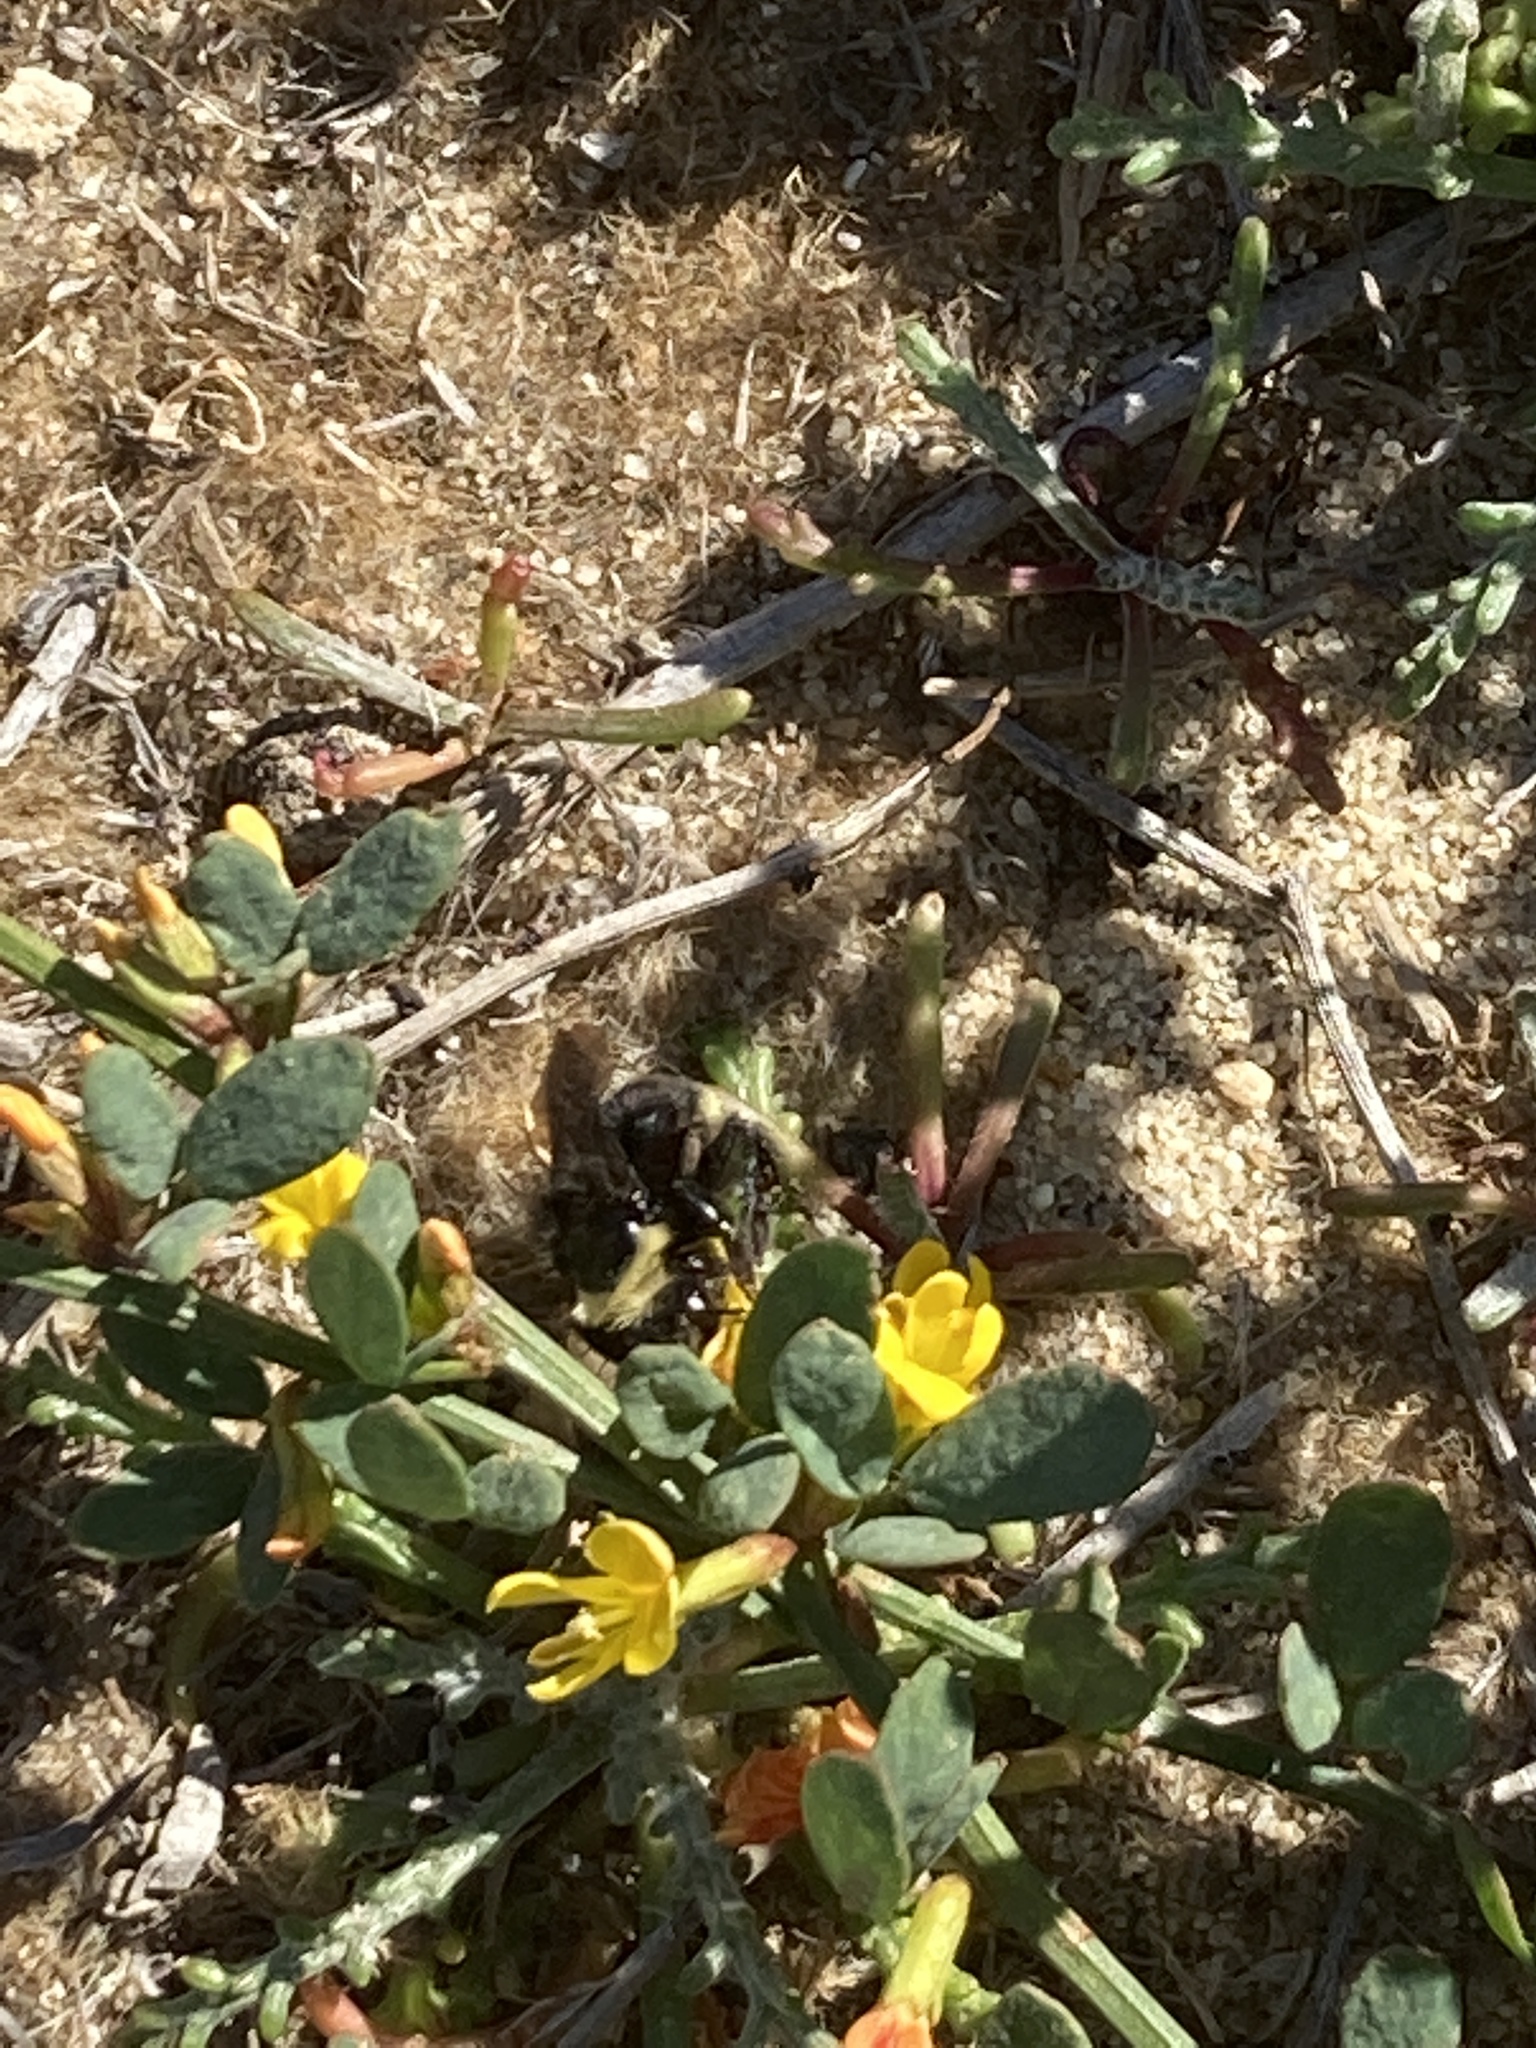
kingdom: Animalia
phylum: Arthropoda
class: Insecta
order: Hymenoptera
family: Apidae
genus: Bombus
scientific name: Bombus vosnesenskii
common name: Vosnesensky bumble bee
